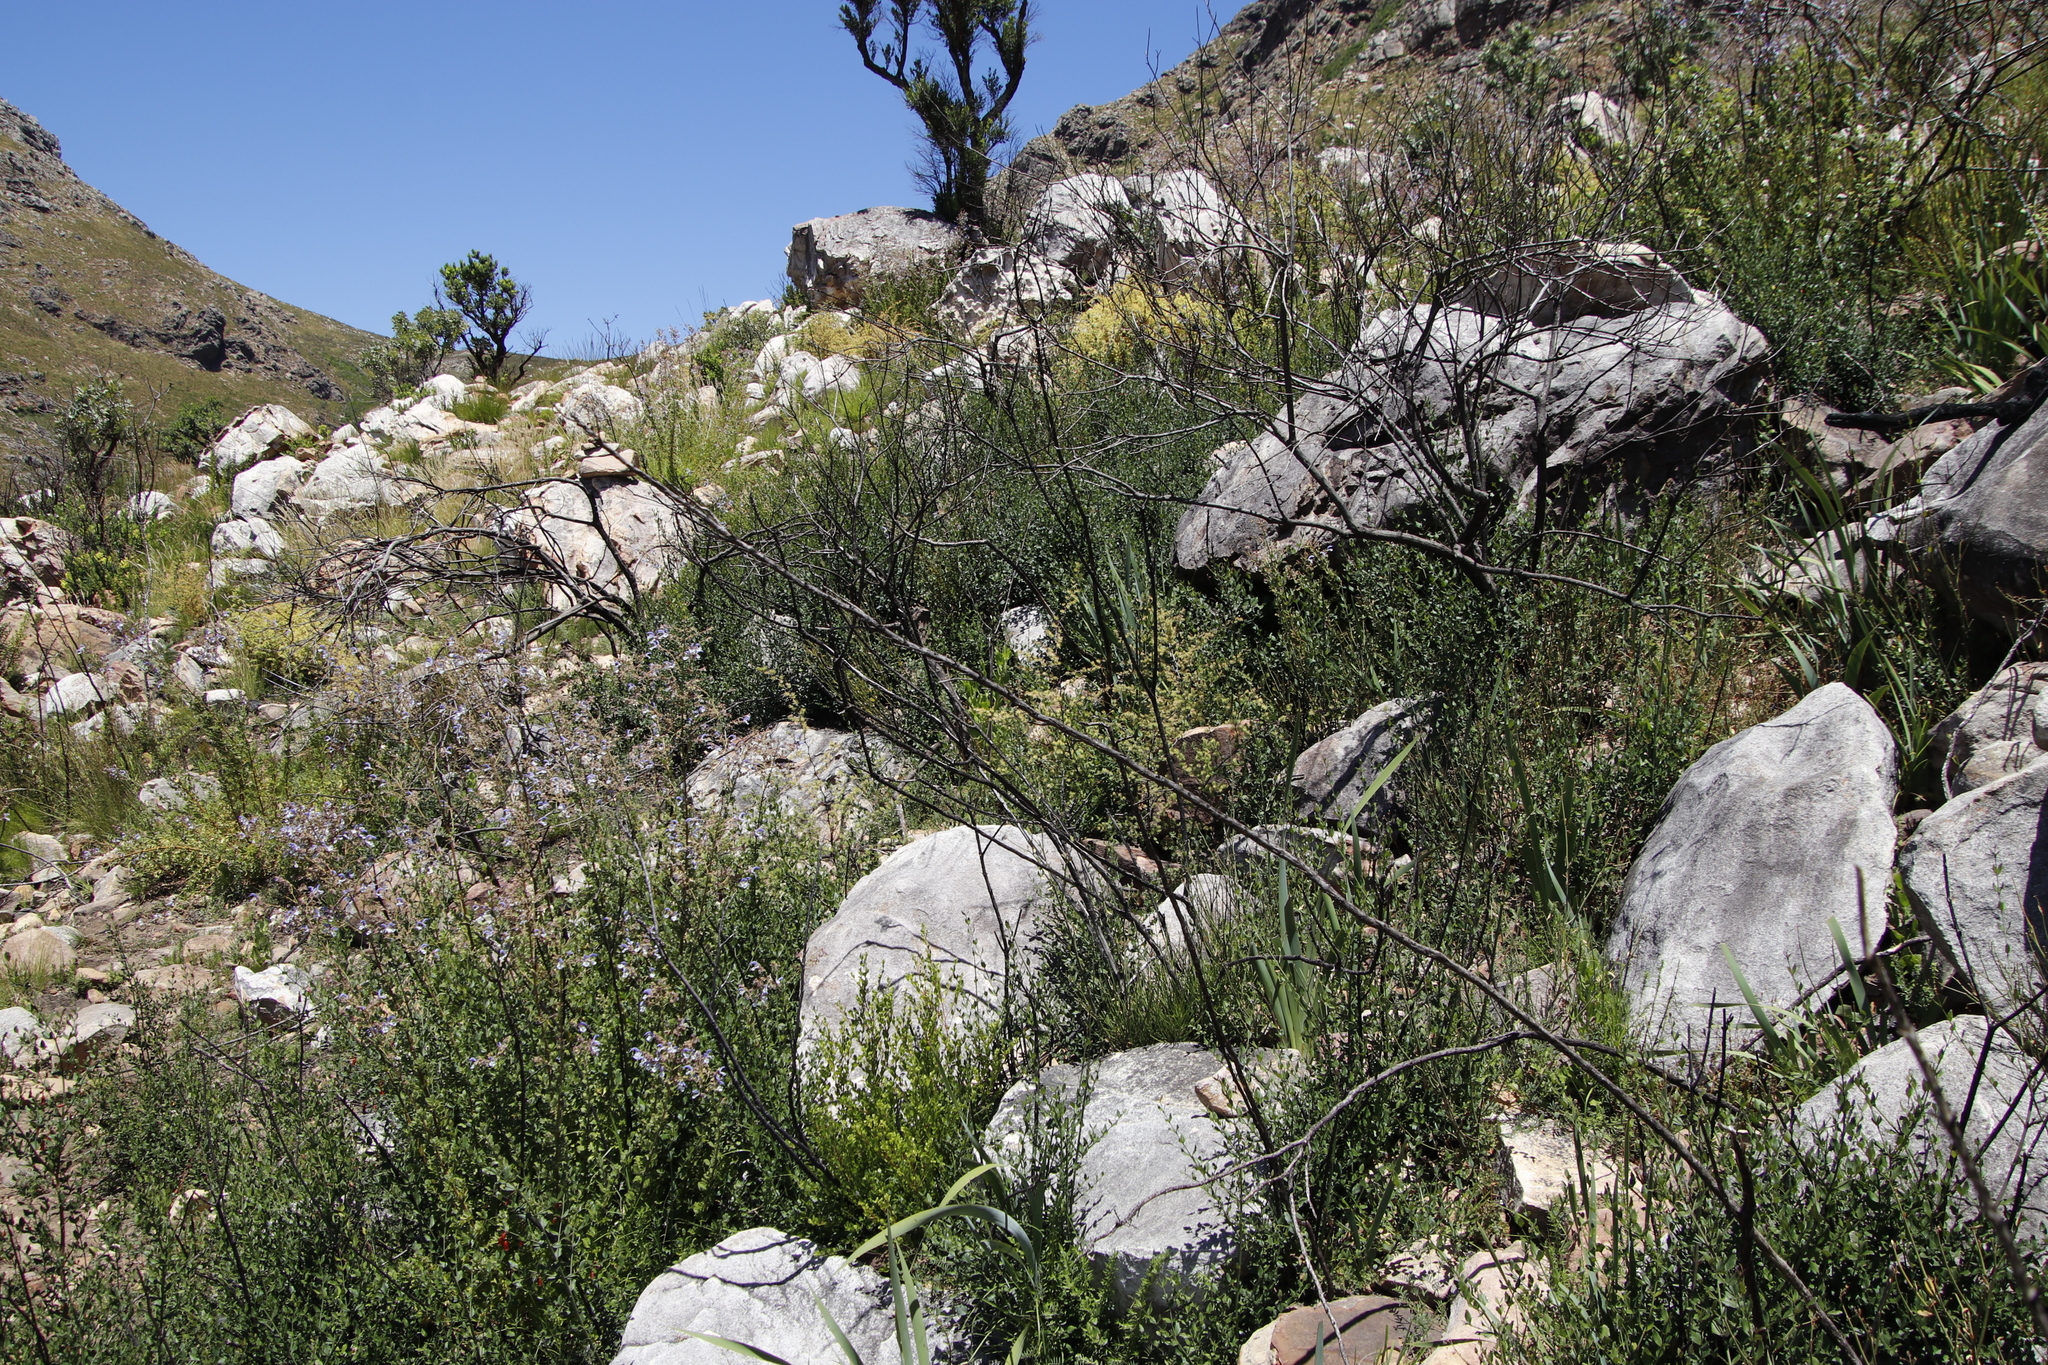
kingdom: Plantae
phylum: Tracheophyta
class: Magnoliopsida
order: Lamiales
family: Stilbaceae
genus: Halleria
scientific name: Halleria elliptica
